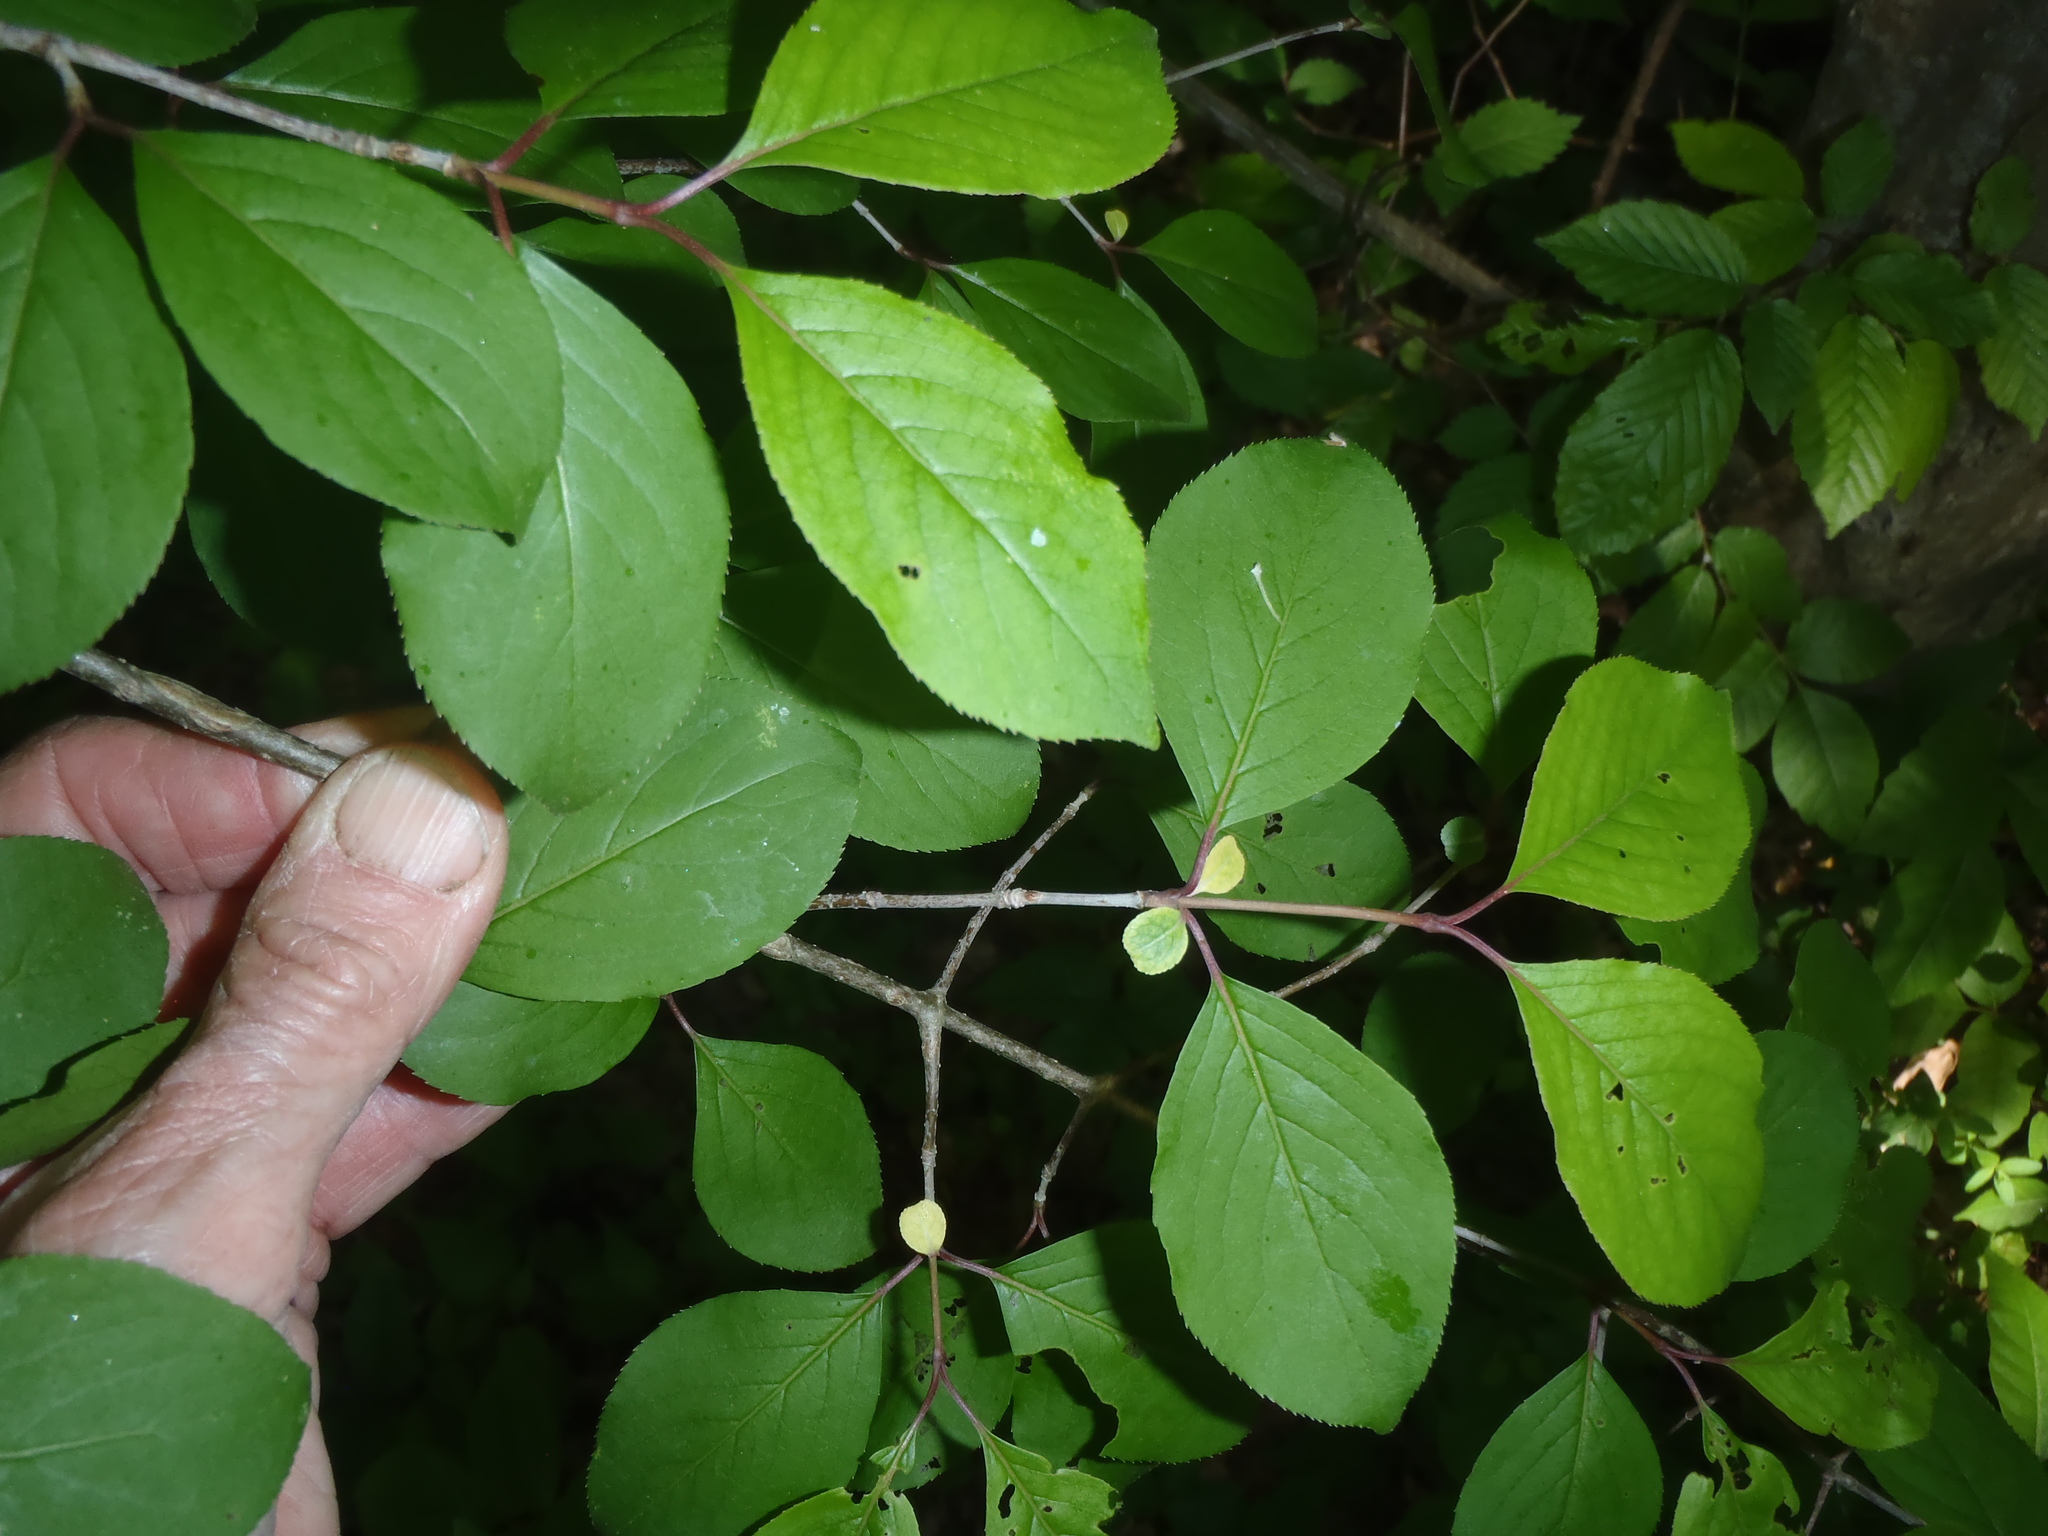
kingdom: Plantae
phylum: Tracheophyta
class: Magnoliopsida
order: Dipsacales
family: Viburnaceae
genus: Viburnum
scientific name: Viburnum prunifolium
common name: Black haw
